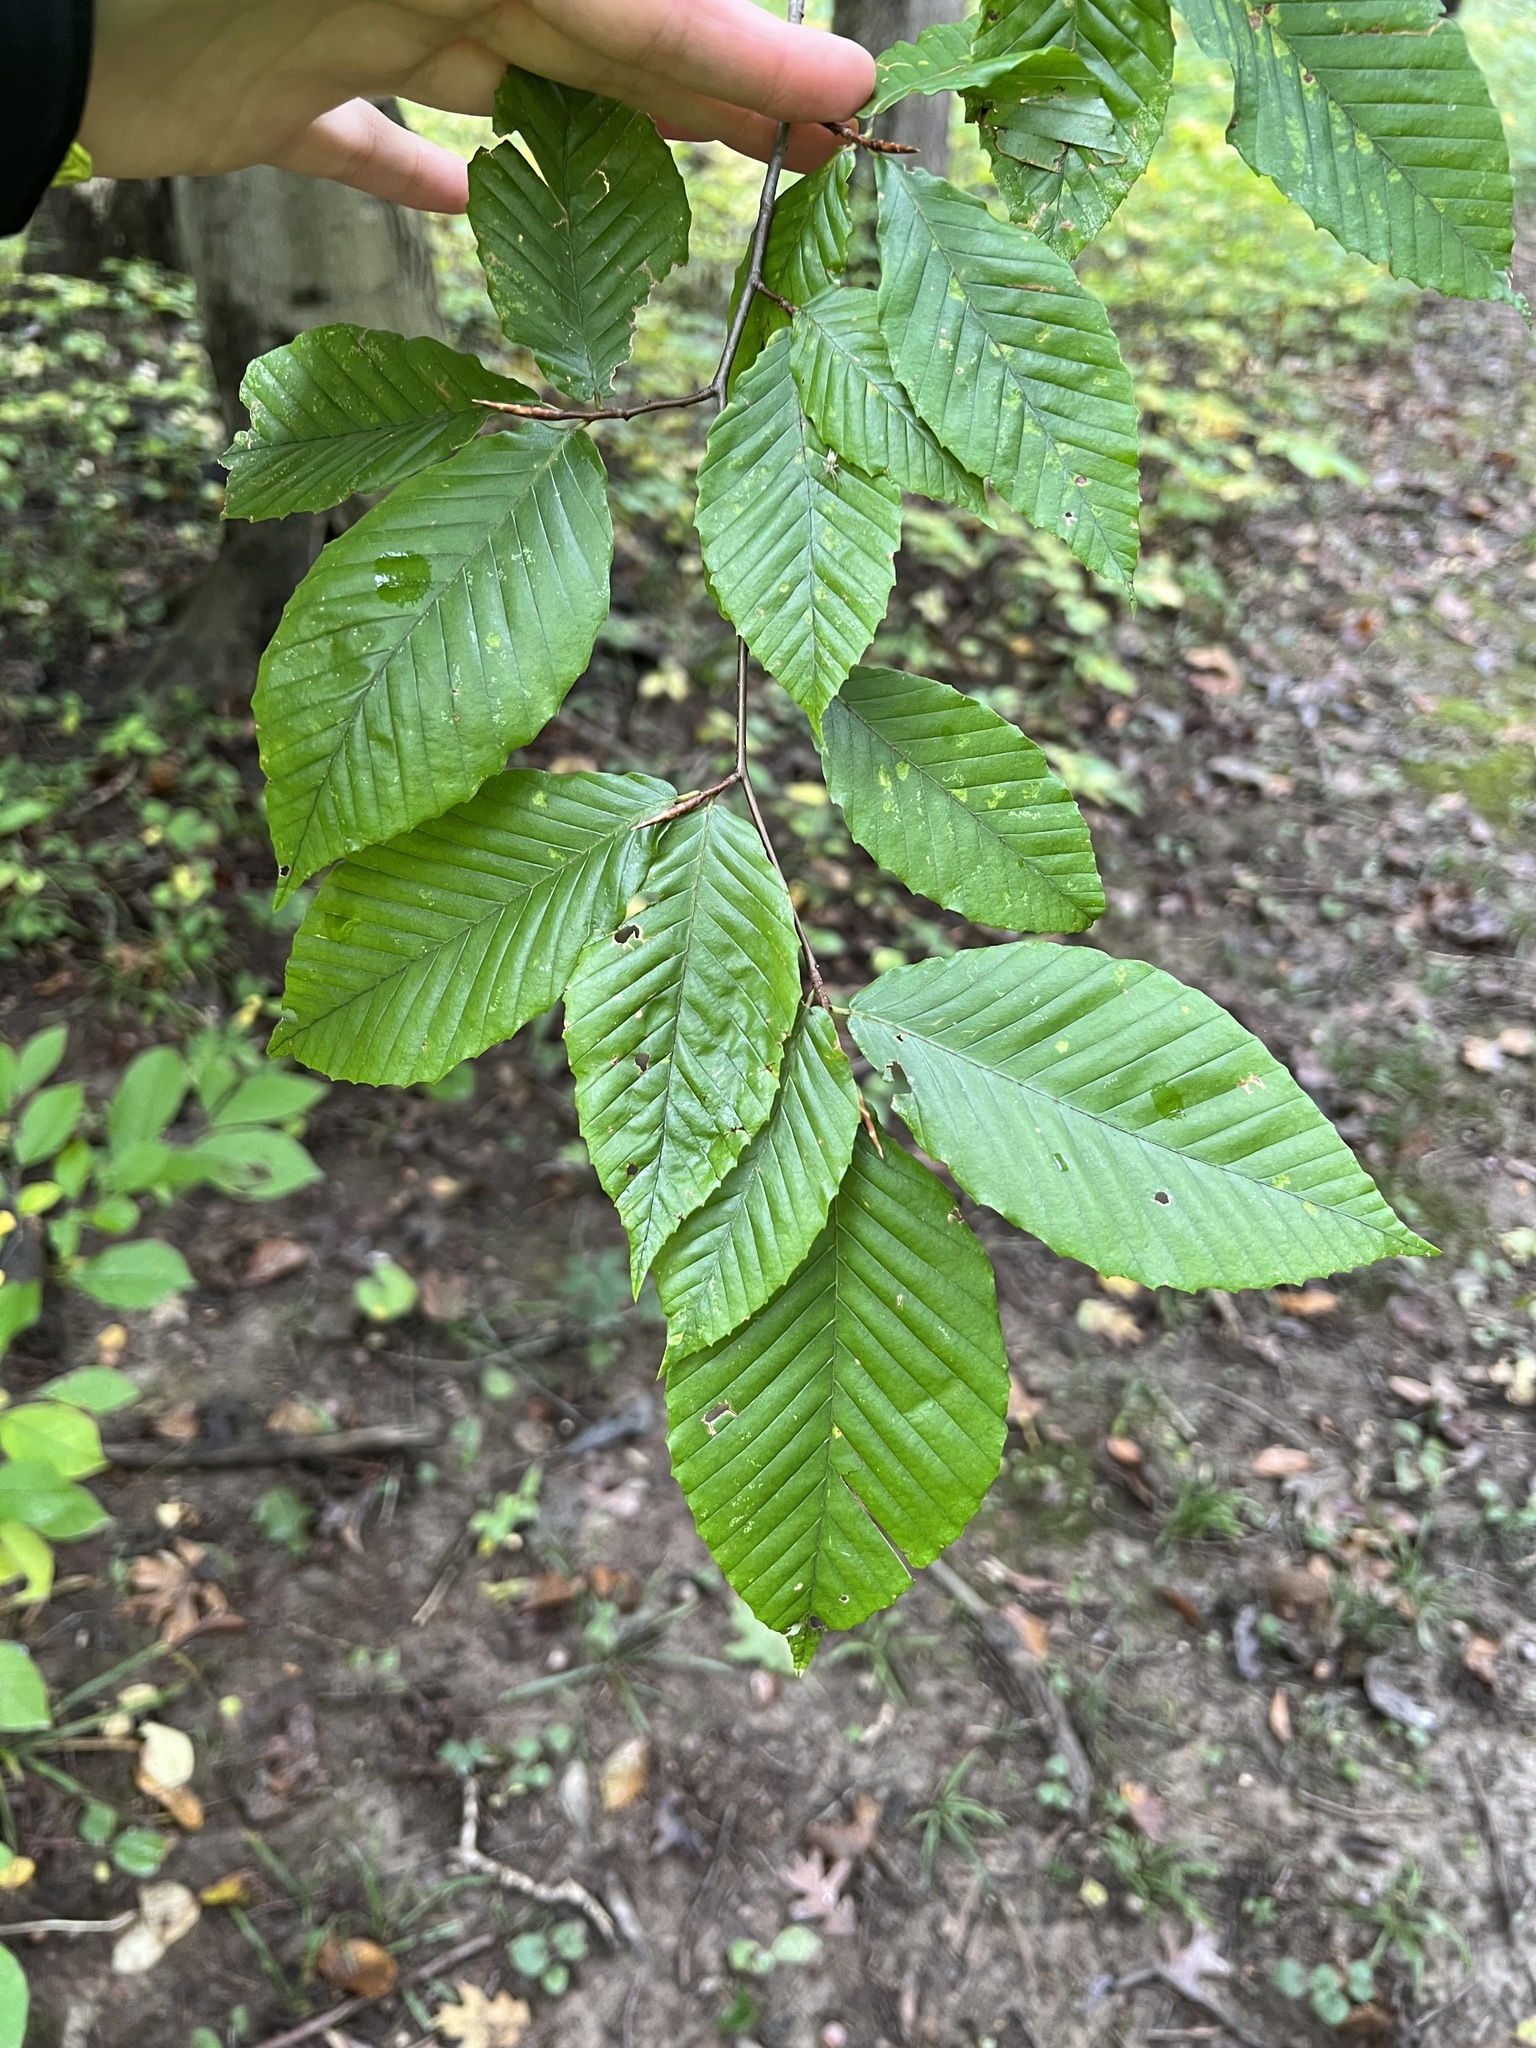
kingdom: Plantae
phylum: Tracheophyta
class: Magnoliopsida
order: Fagales
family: Fagaceae
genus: Fagus
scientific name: Fagus grandifolia
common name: American beech
